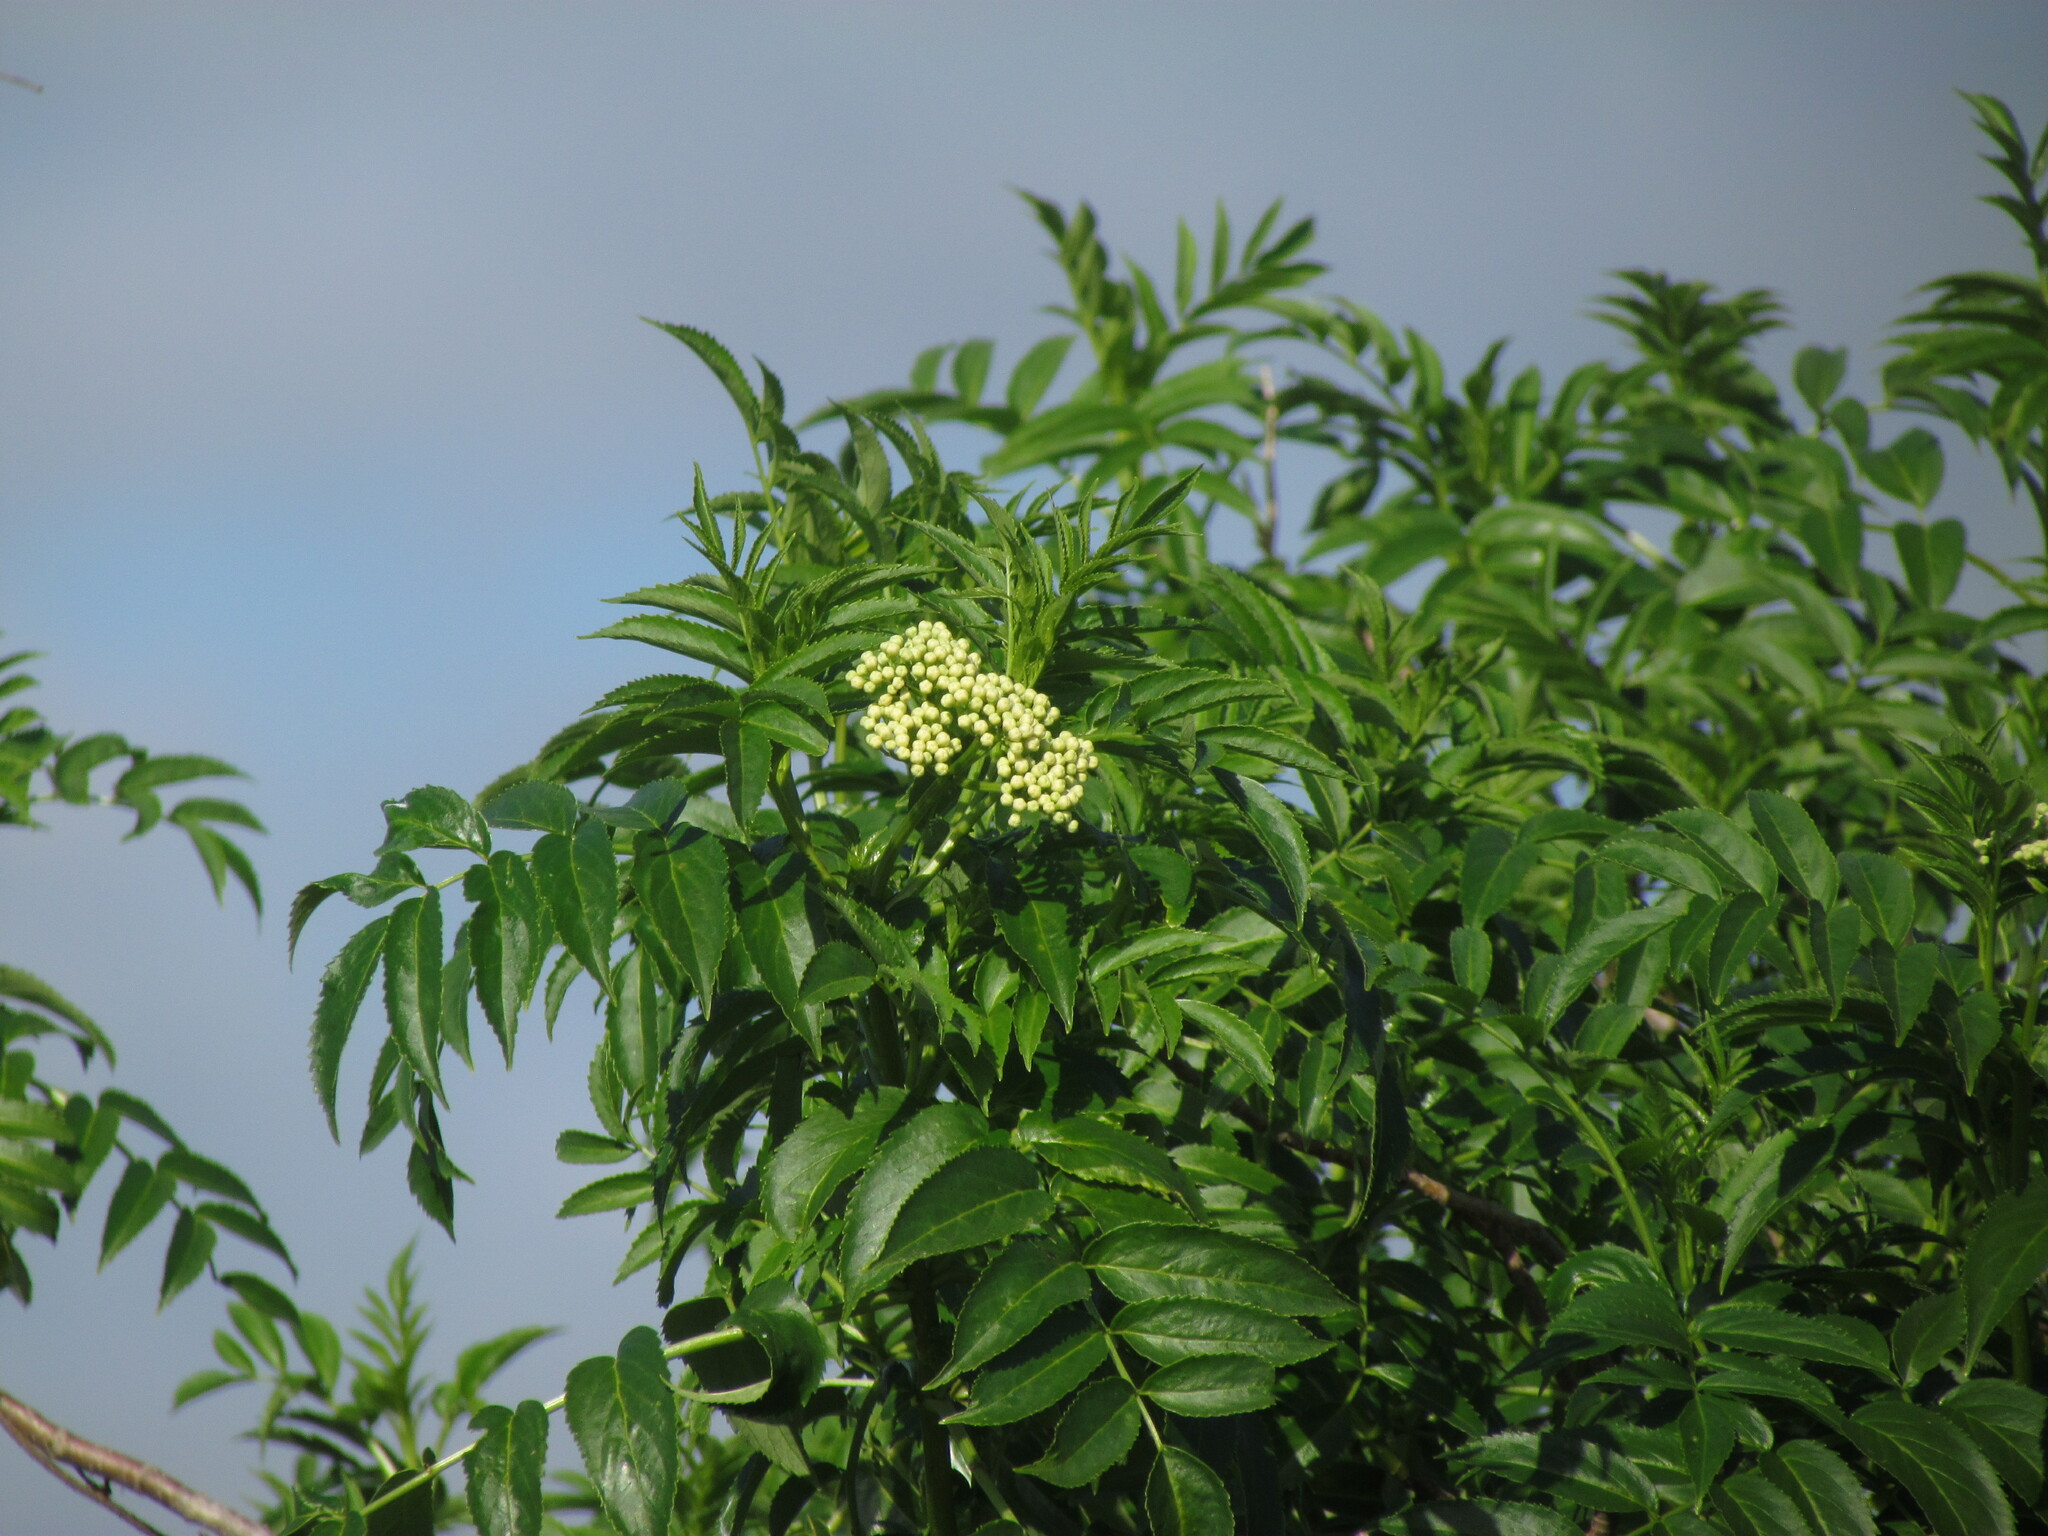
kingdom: Plantae
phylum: Tracheophyta
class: Magnoliopsida
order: Dipsacales
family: Viburnaceae
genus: Sambucus
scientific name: Sambucus australis
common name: Southern elder
